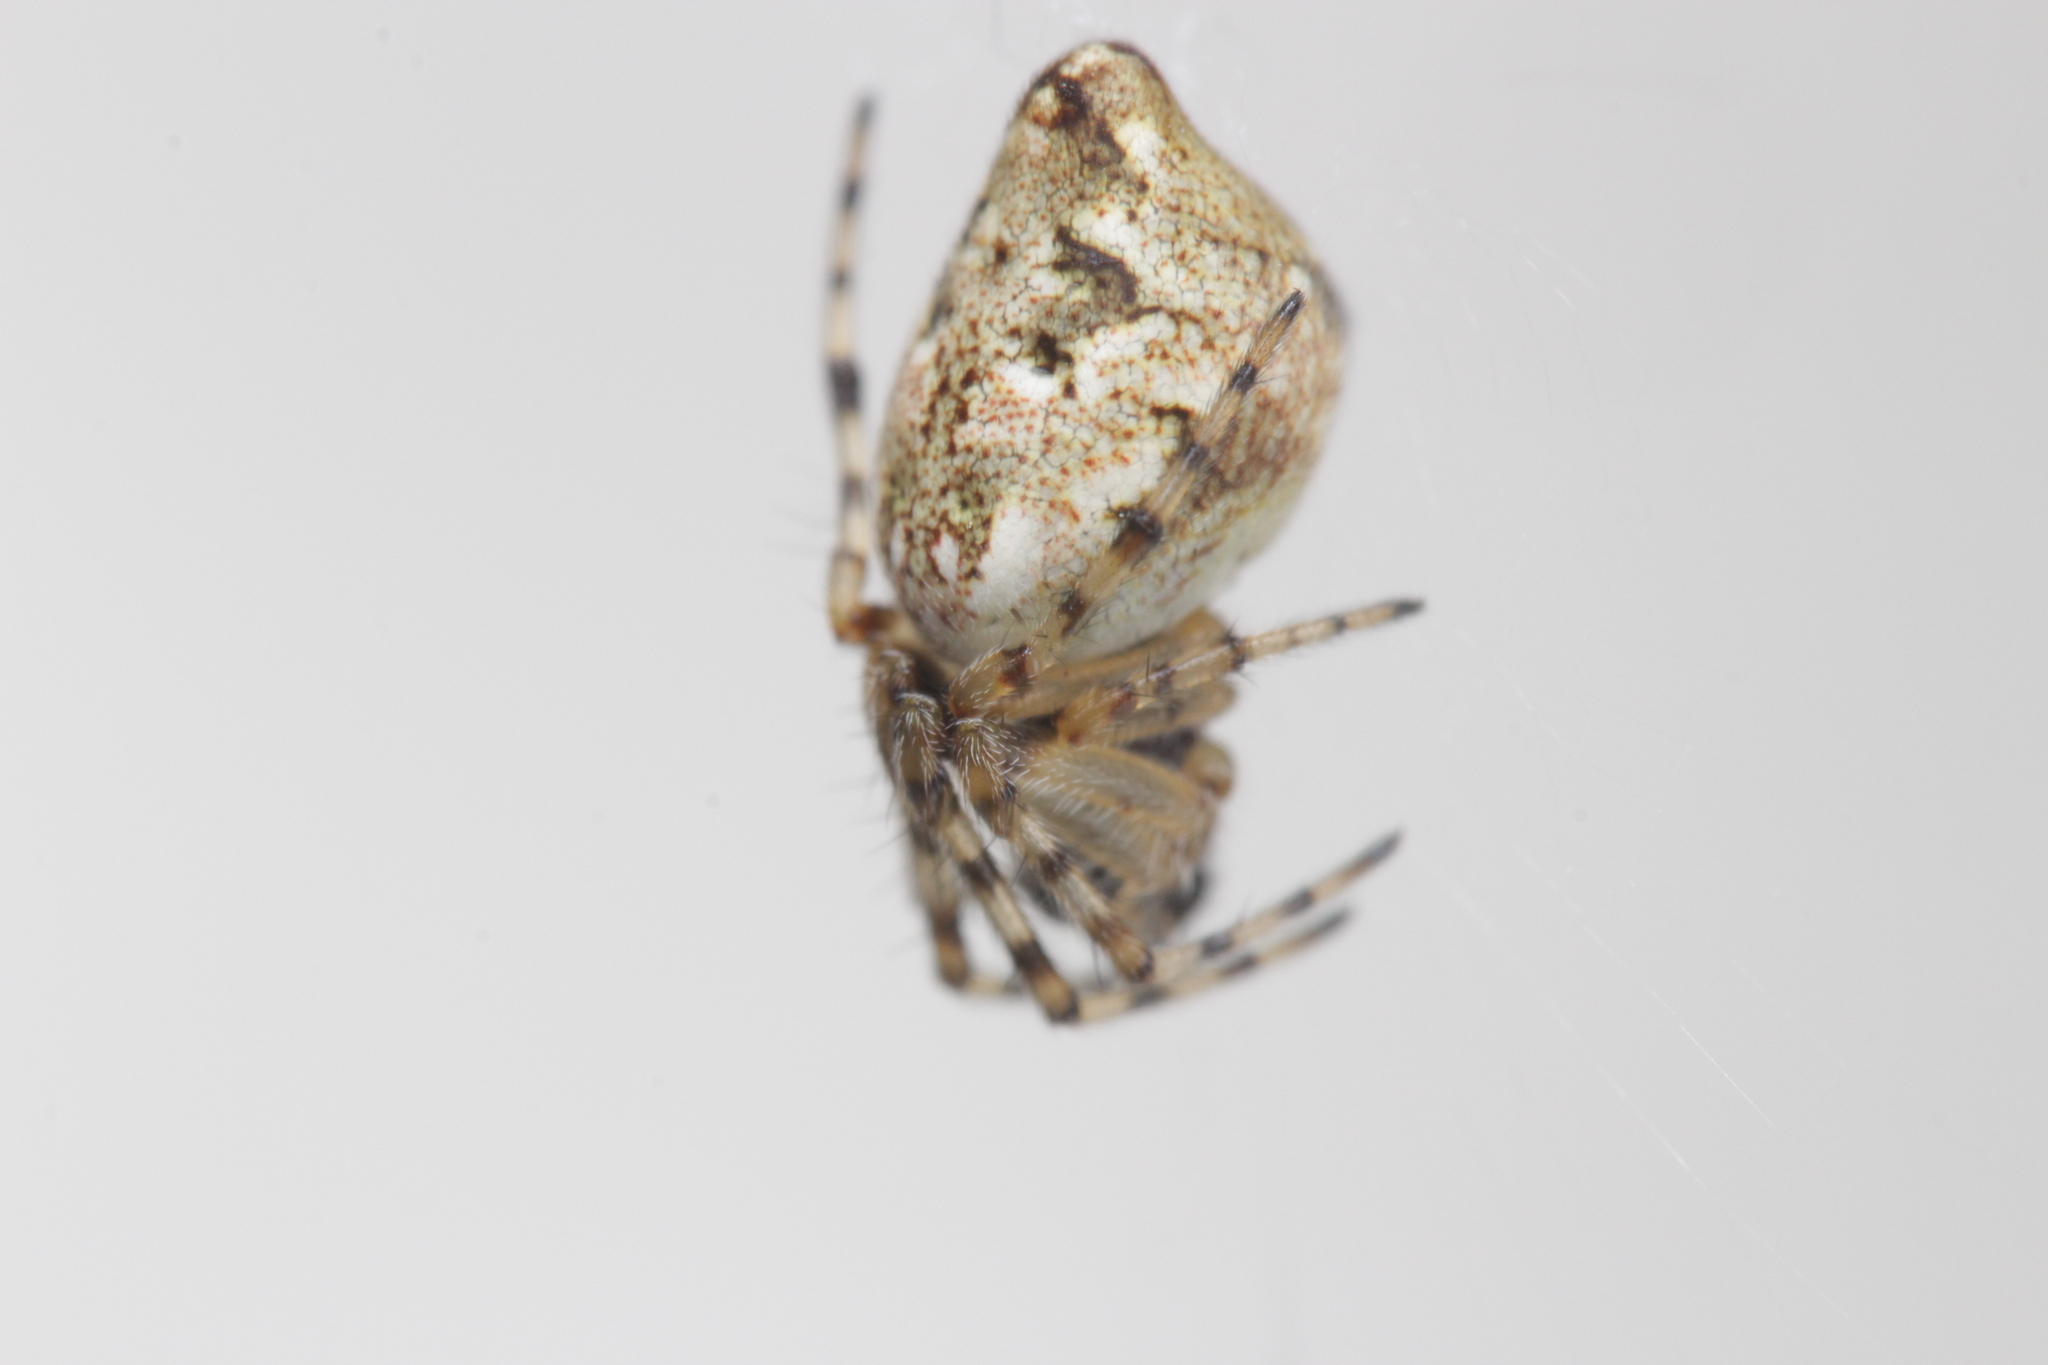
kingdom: Animalia
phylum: Arthropoda
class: Arachnida
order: Araneae
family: Araneidae
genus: Cyclosa
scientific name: Cyclosa conica
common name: Conical trashline orbweaver
